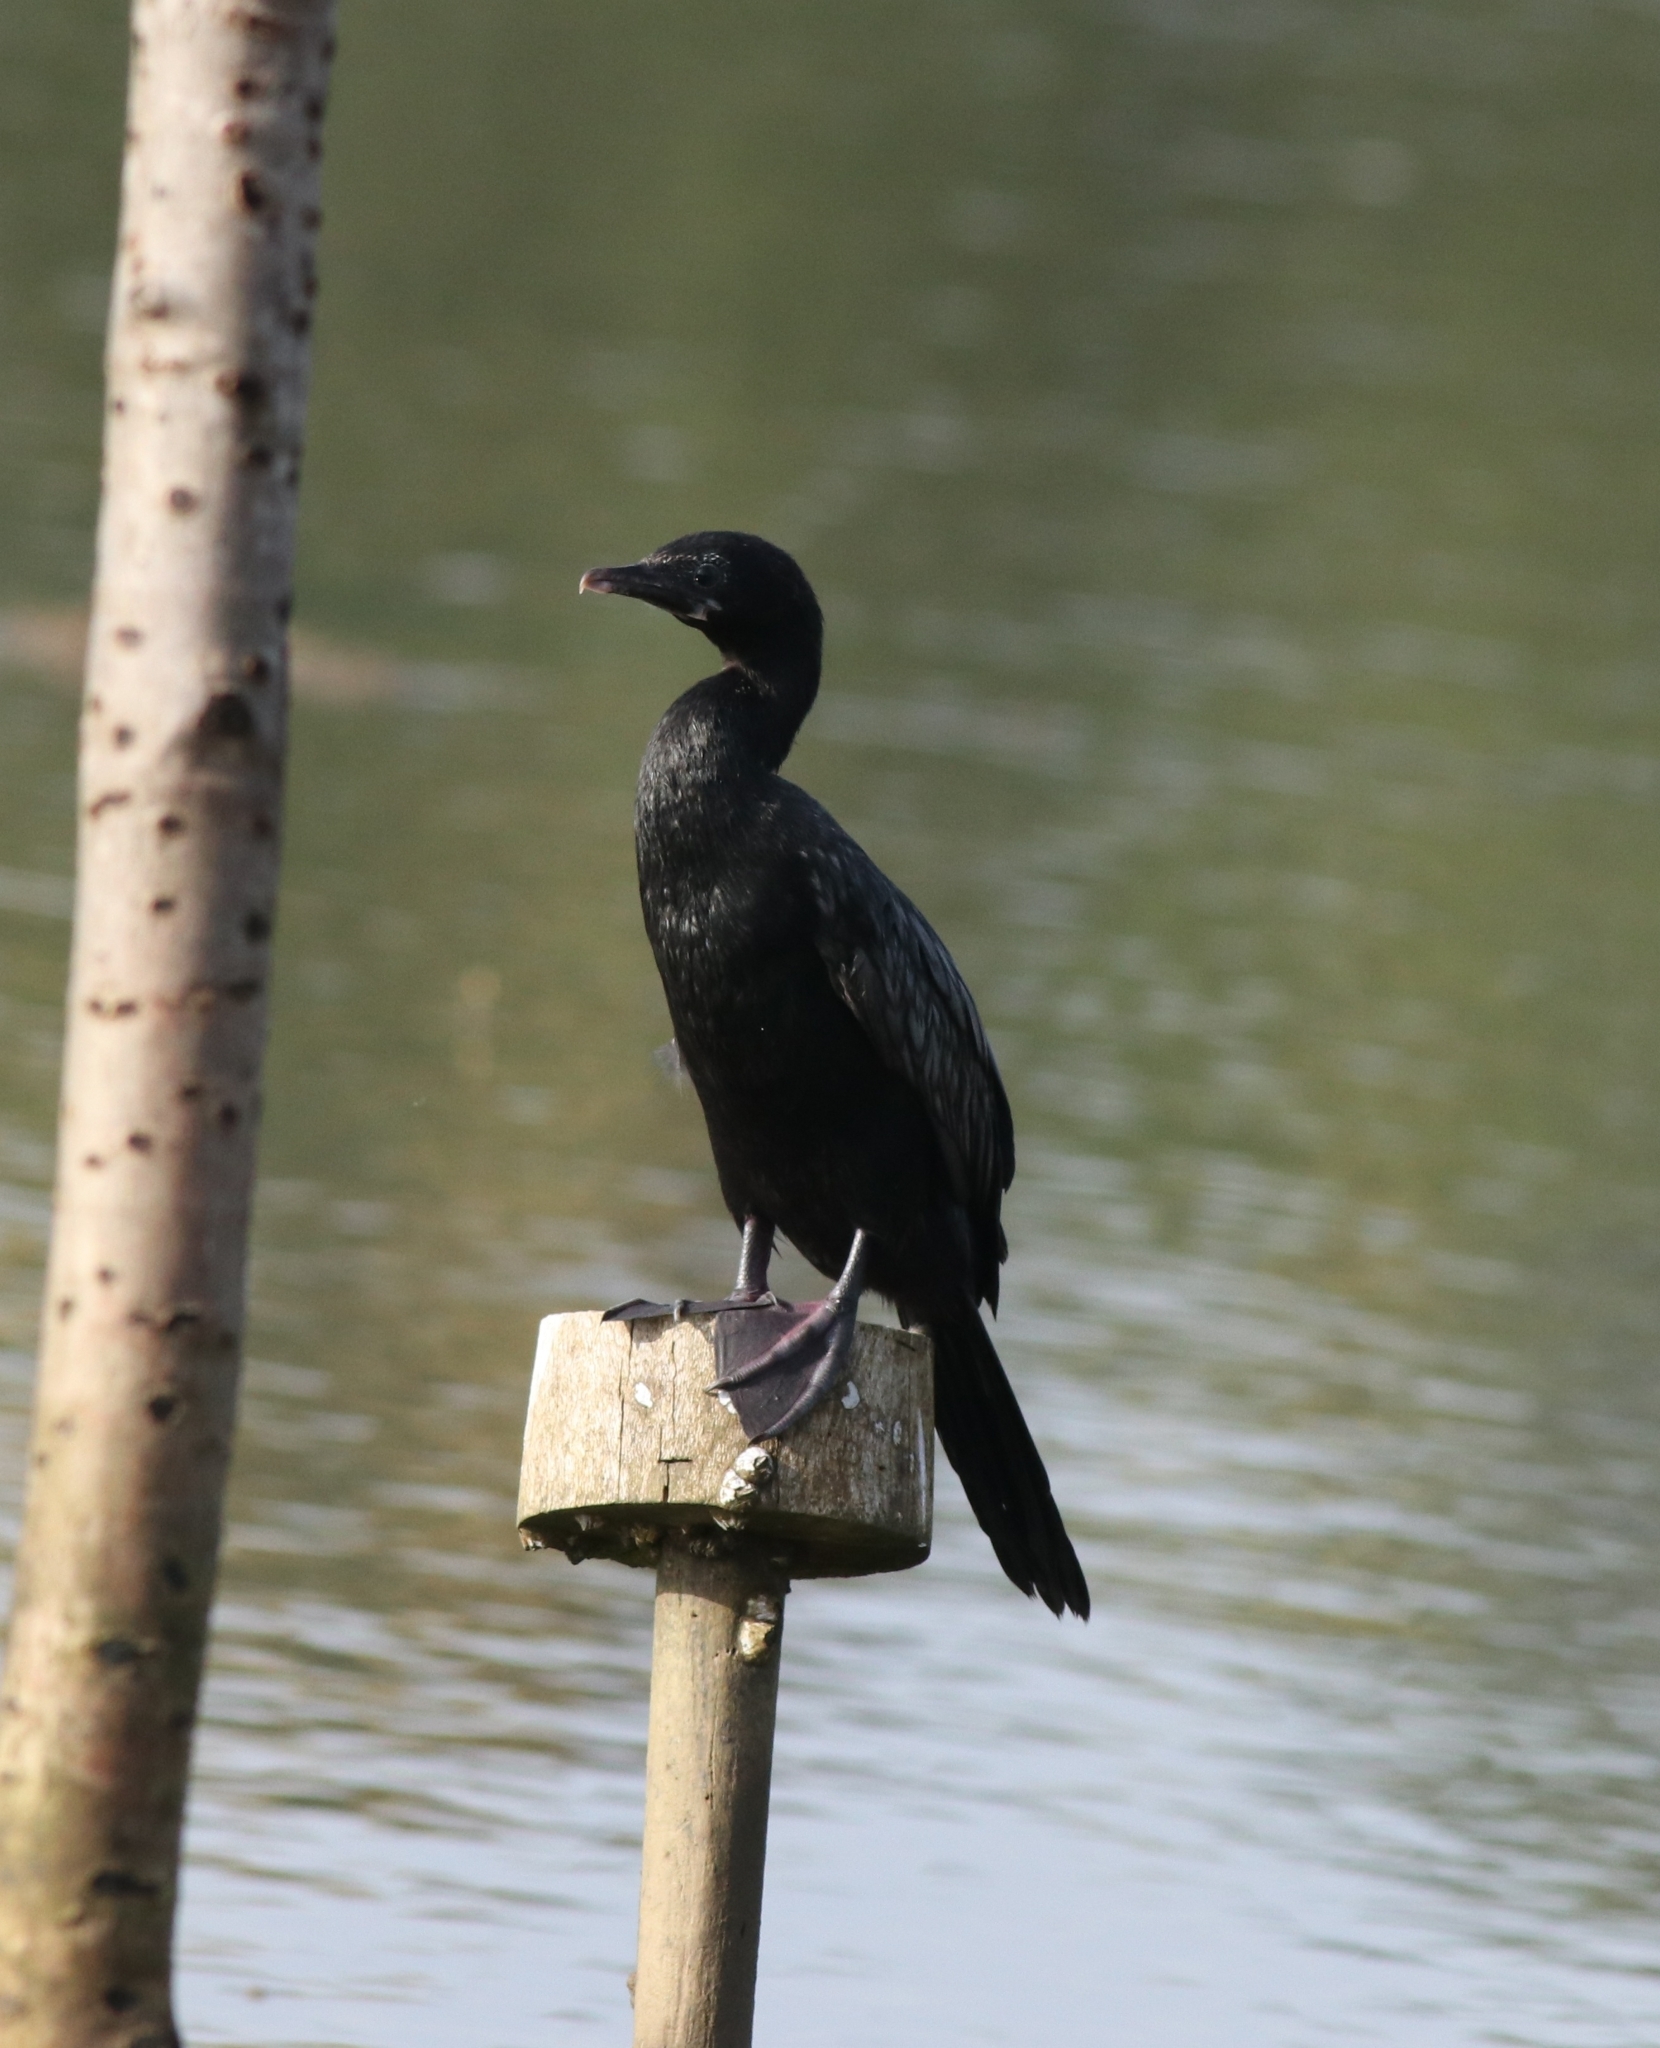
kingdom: Animalia
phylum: Chordata
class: Aves
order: Suliformes
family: Phalacrocoracidae
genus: Microcarbo
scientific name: Microcarbo niger
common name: Little cormorant
